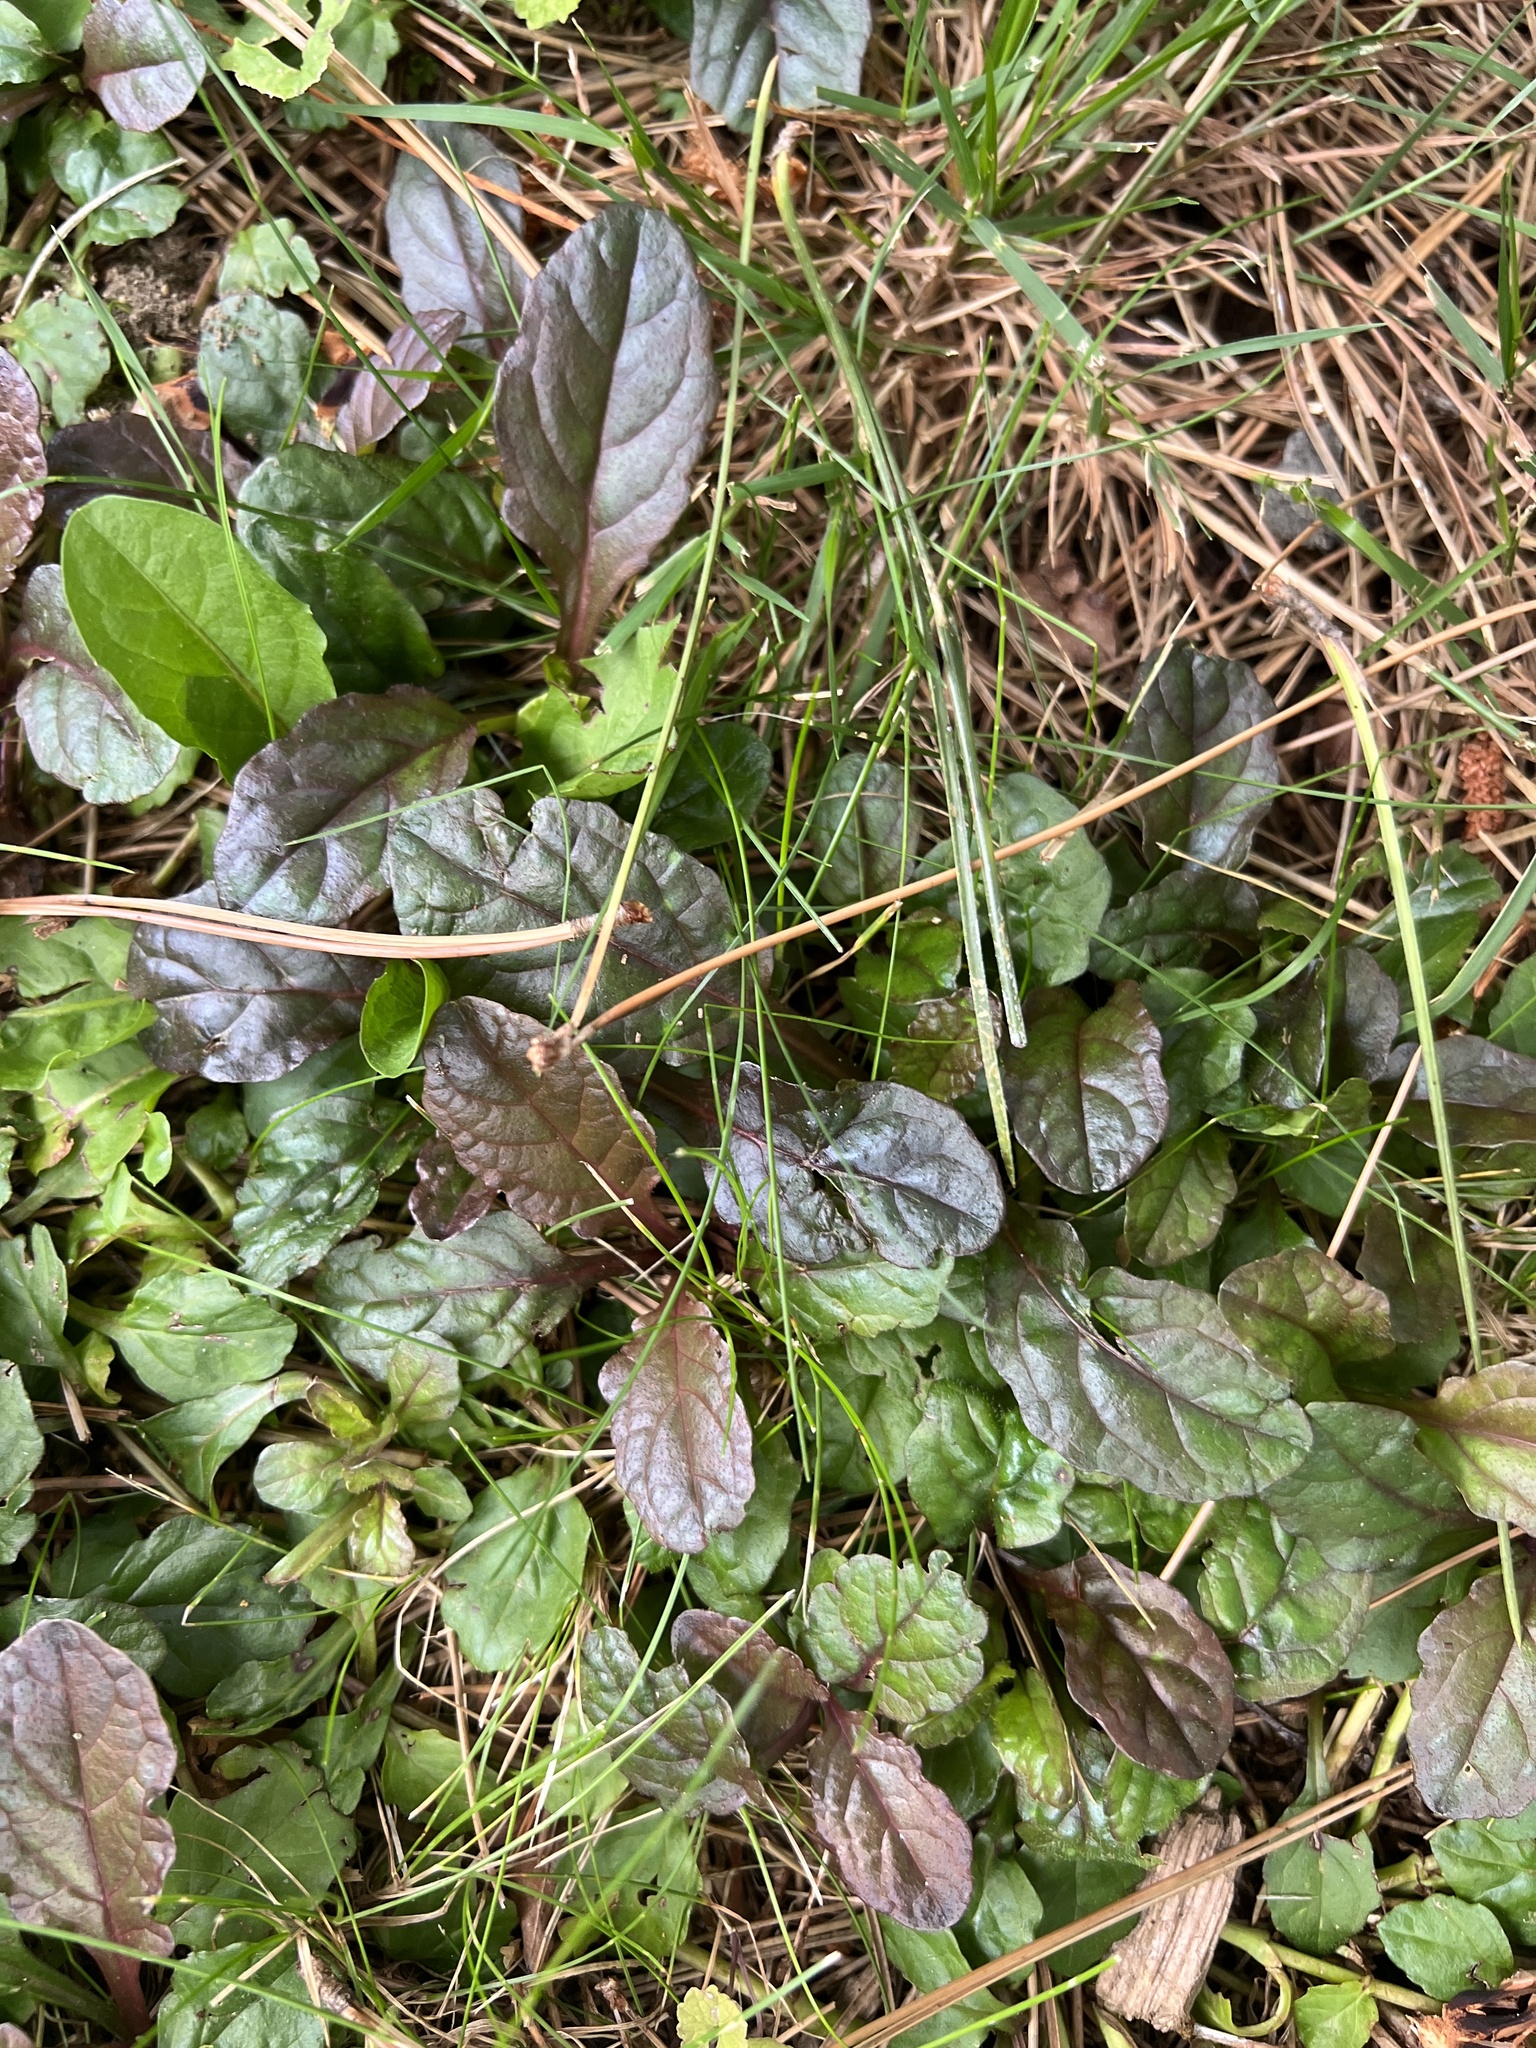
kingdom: Plantae
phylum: Tracheophyta
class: Magnoliopsida
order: Lamiales
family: Lamiaceae
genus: Ajuga
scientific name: Ajuga reptans
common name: Bugle
